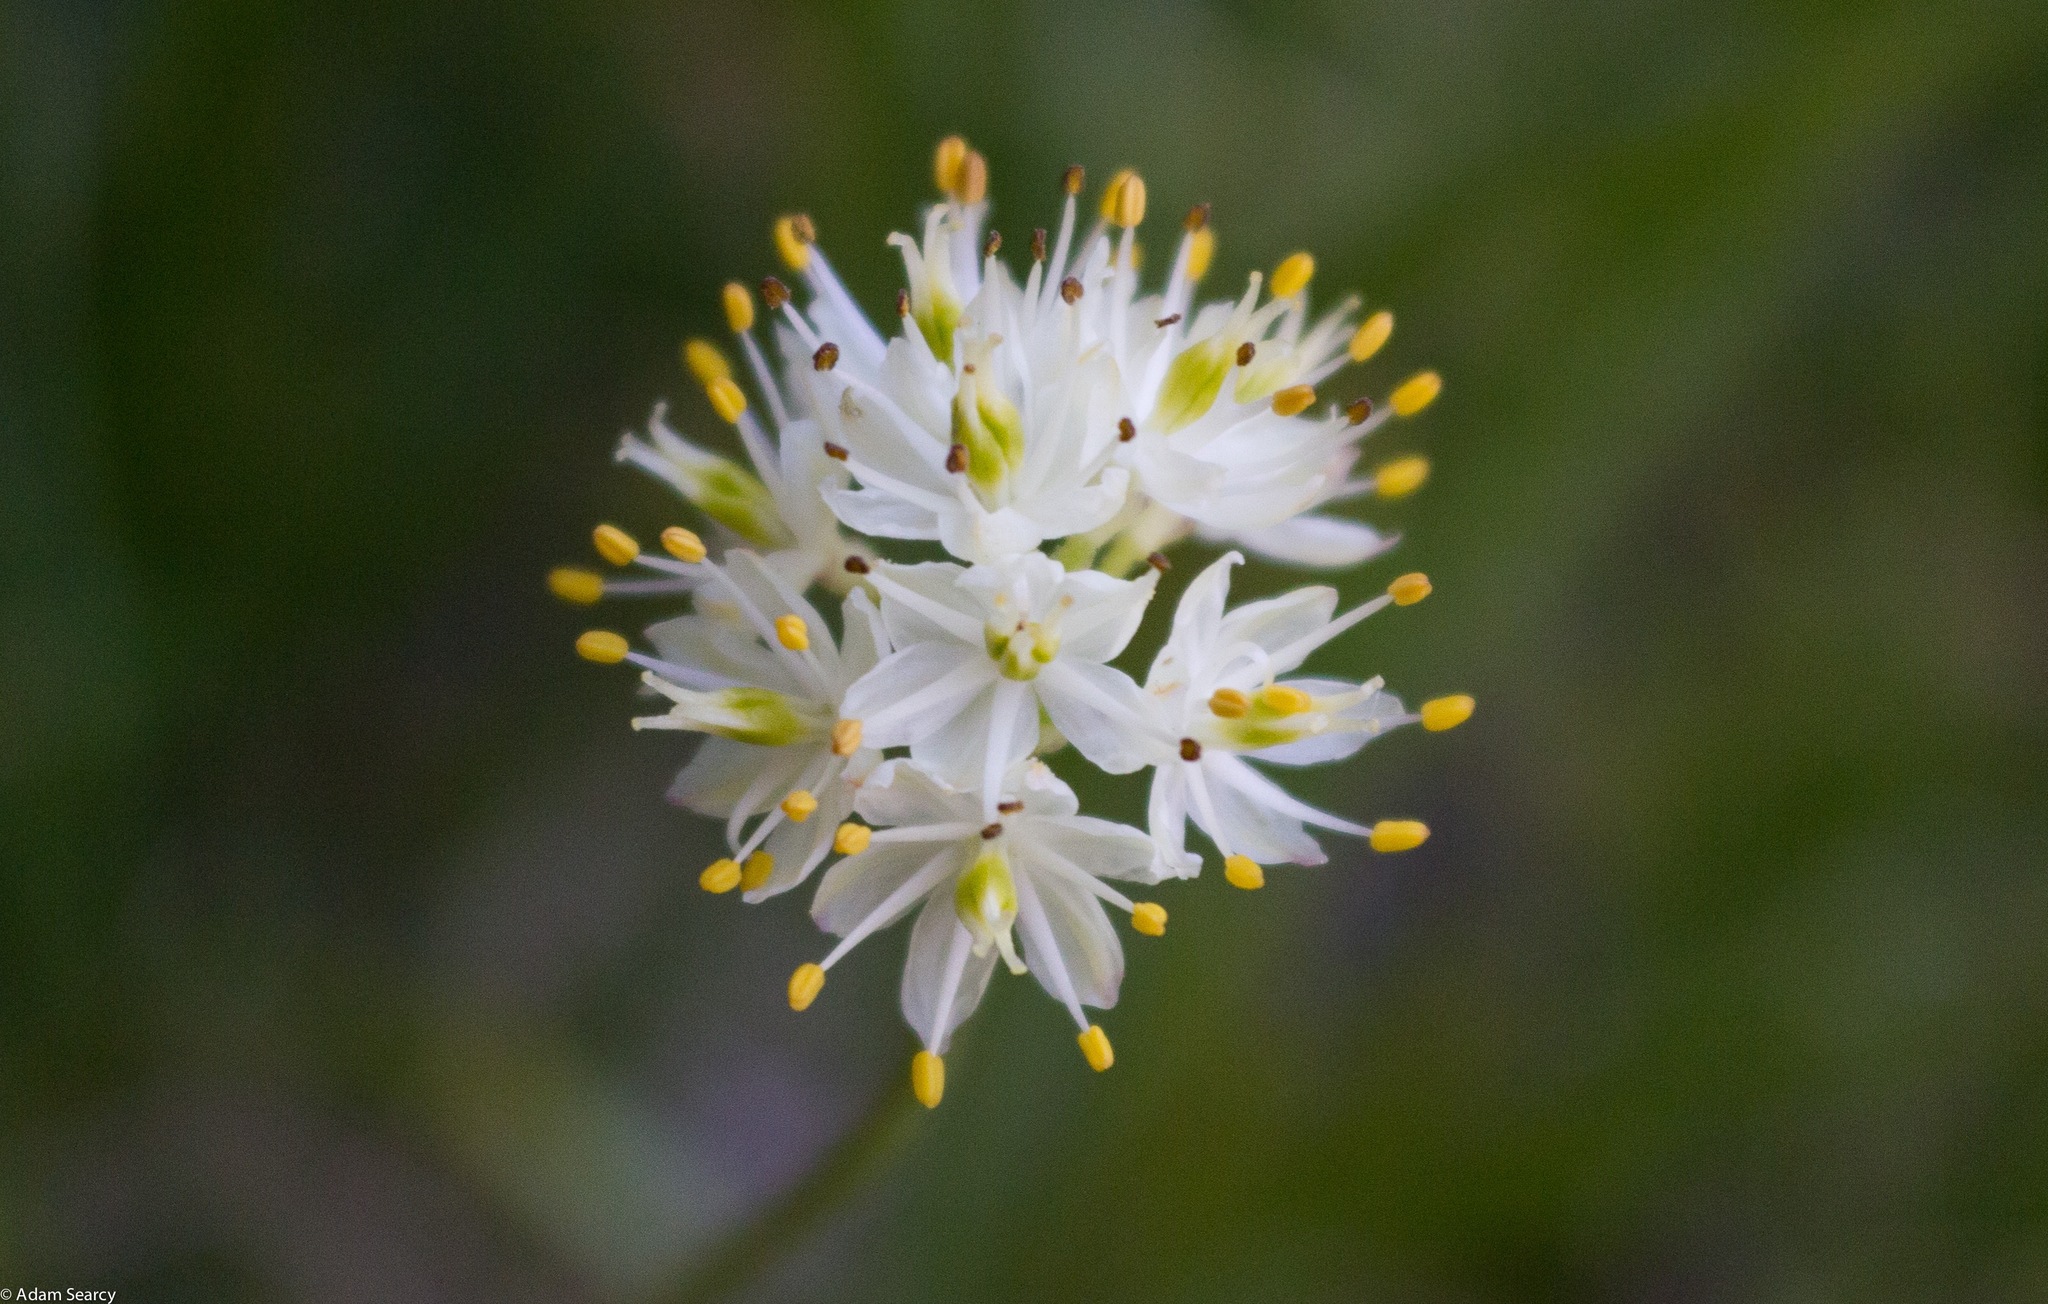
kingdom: Plantae
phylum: Tracheophyta
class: Liliopsida
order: Alismatales
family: Tofieldiaceae
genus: Triantha
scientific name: Triantha occidentalis
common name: Western false asphodel
